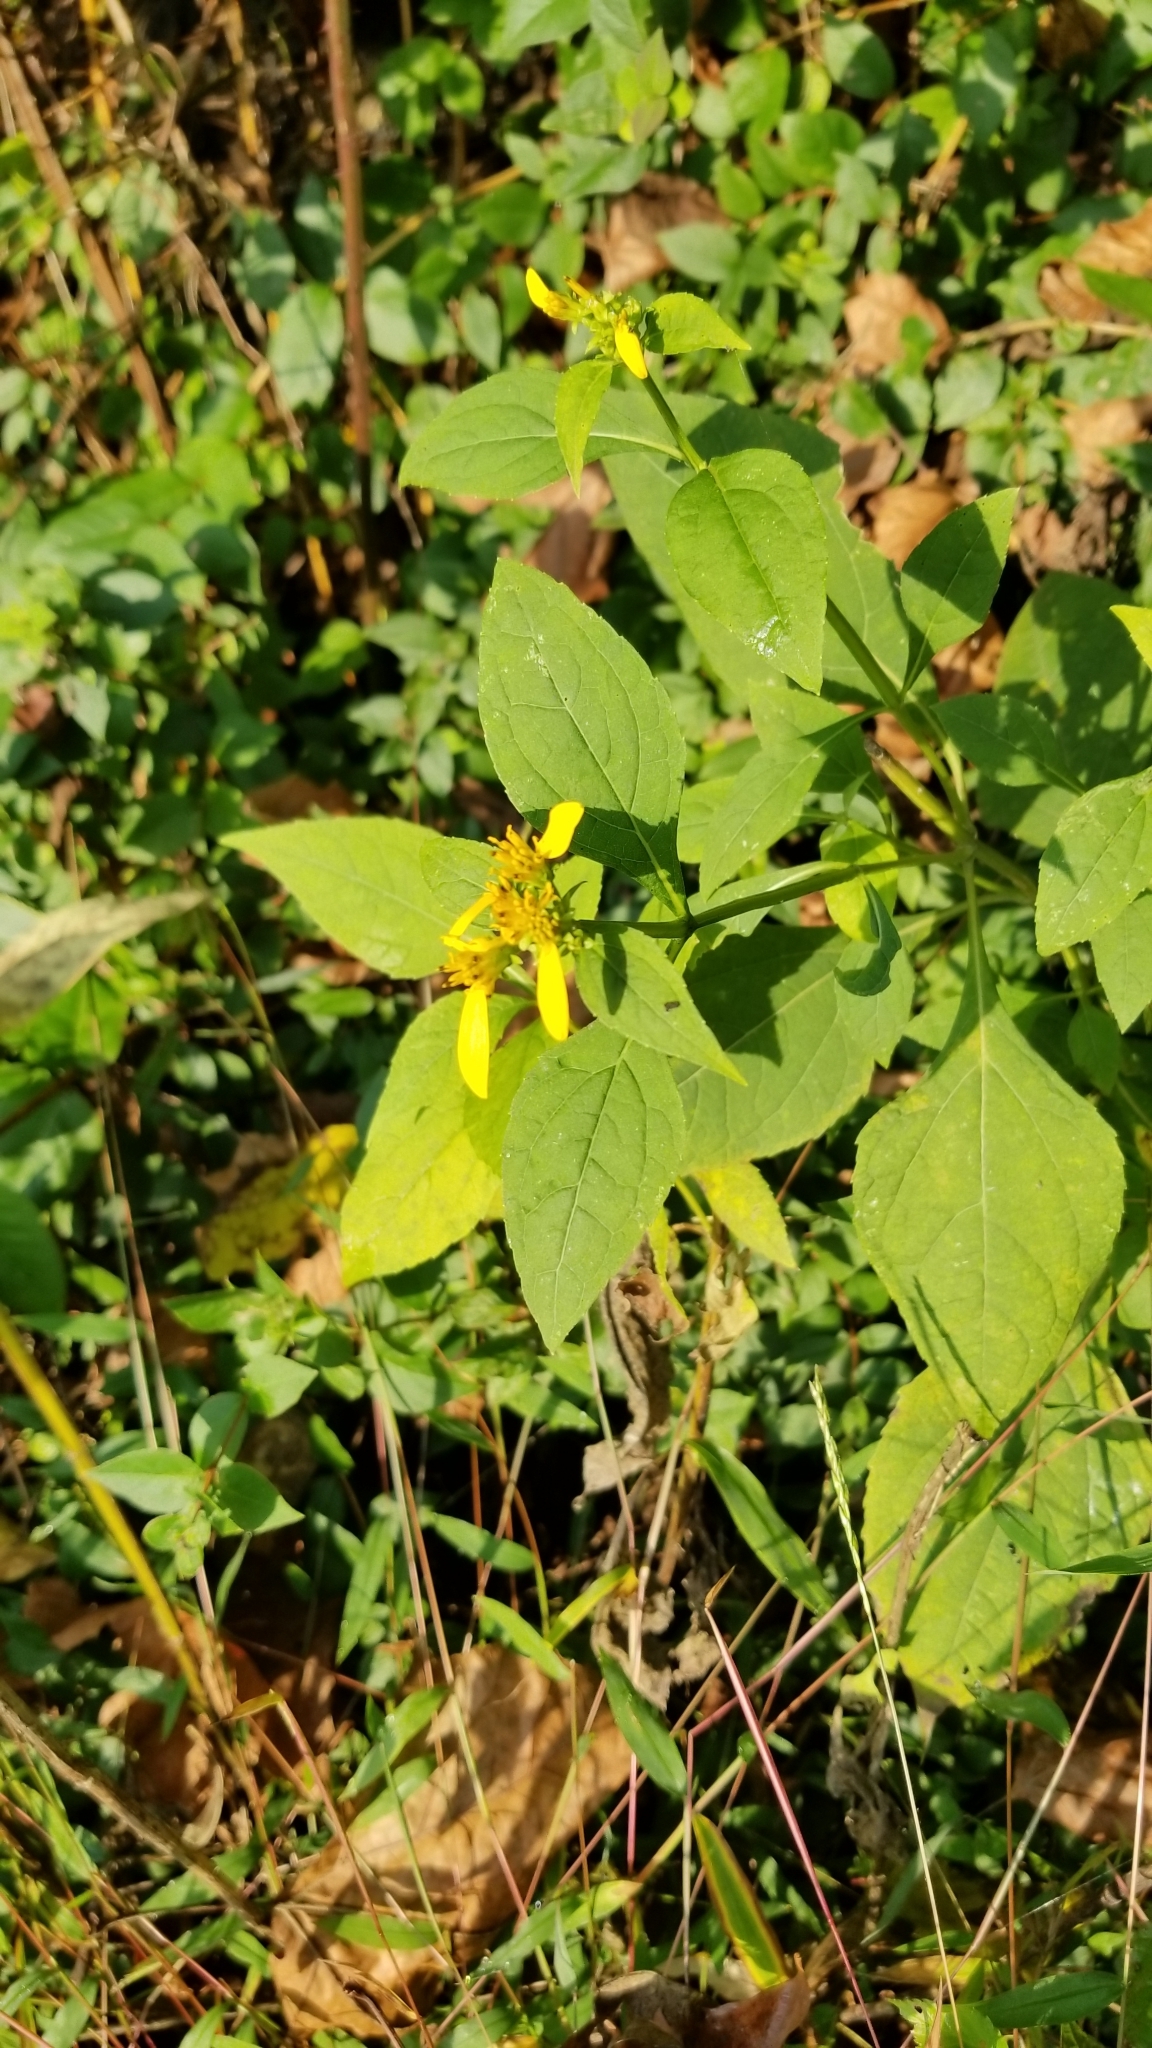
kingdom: Plantae
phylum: Tracheophyta
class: Magnoliopsida
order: Asterales
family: Asteraceae
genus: Verbesina
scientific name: Verbesina occidentalis
